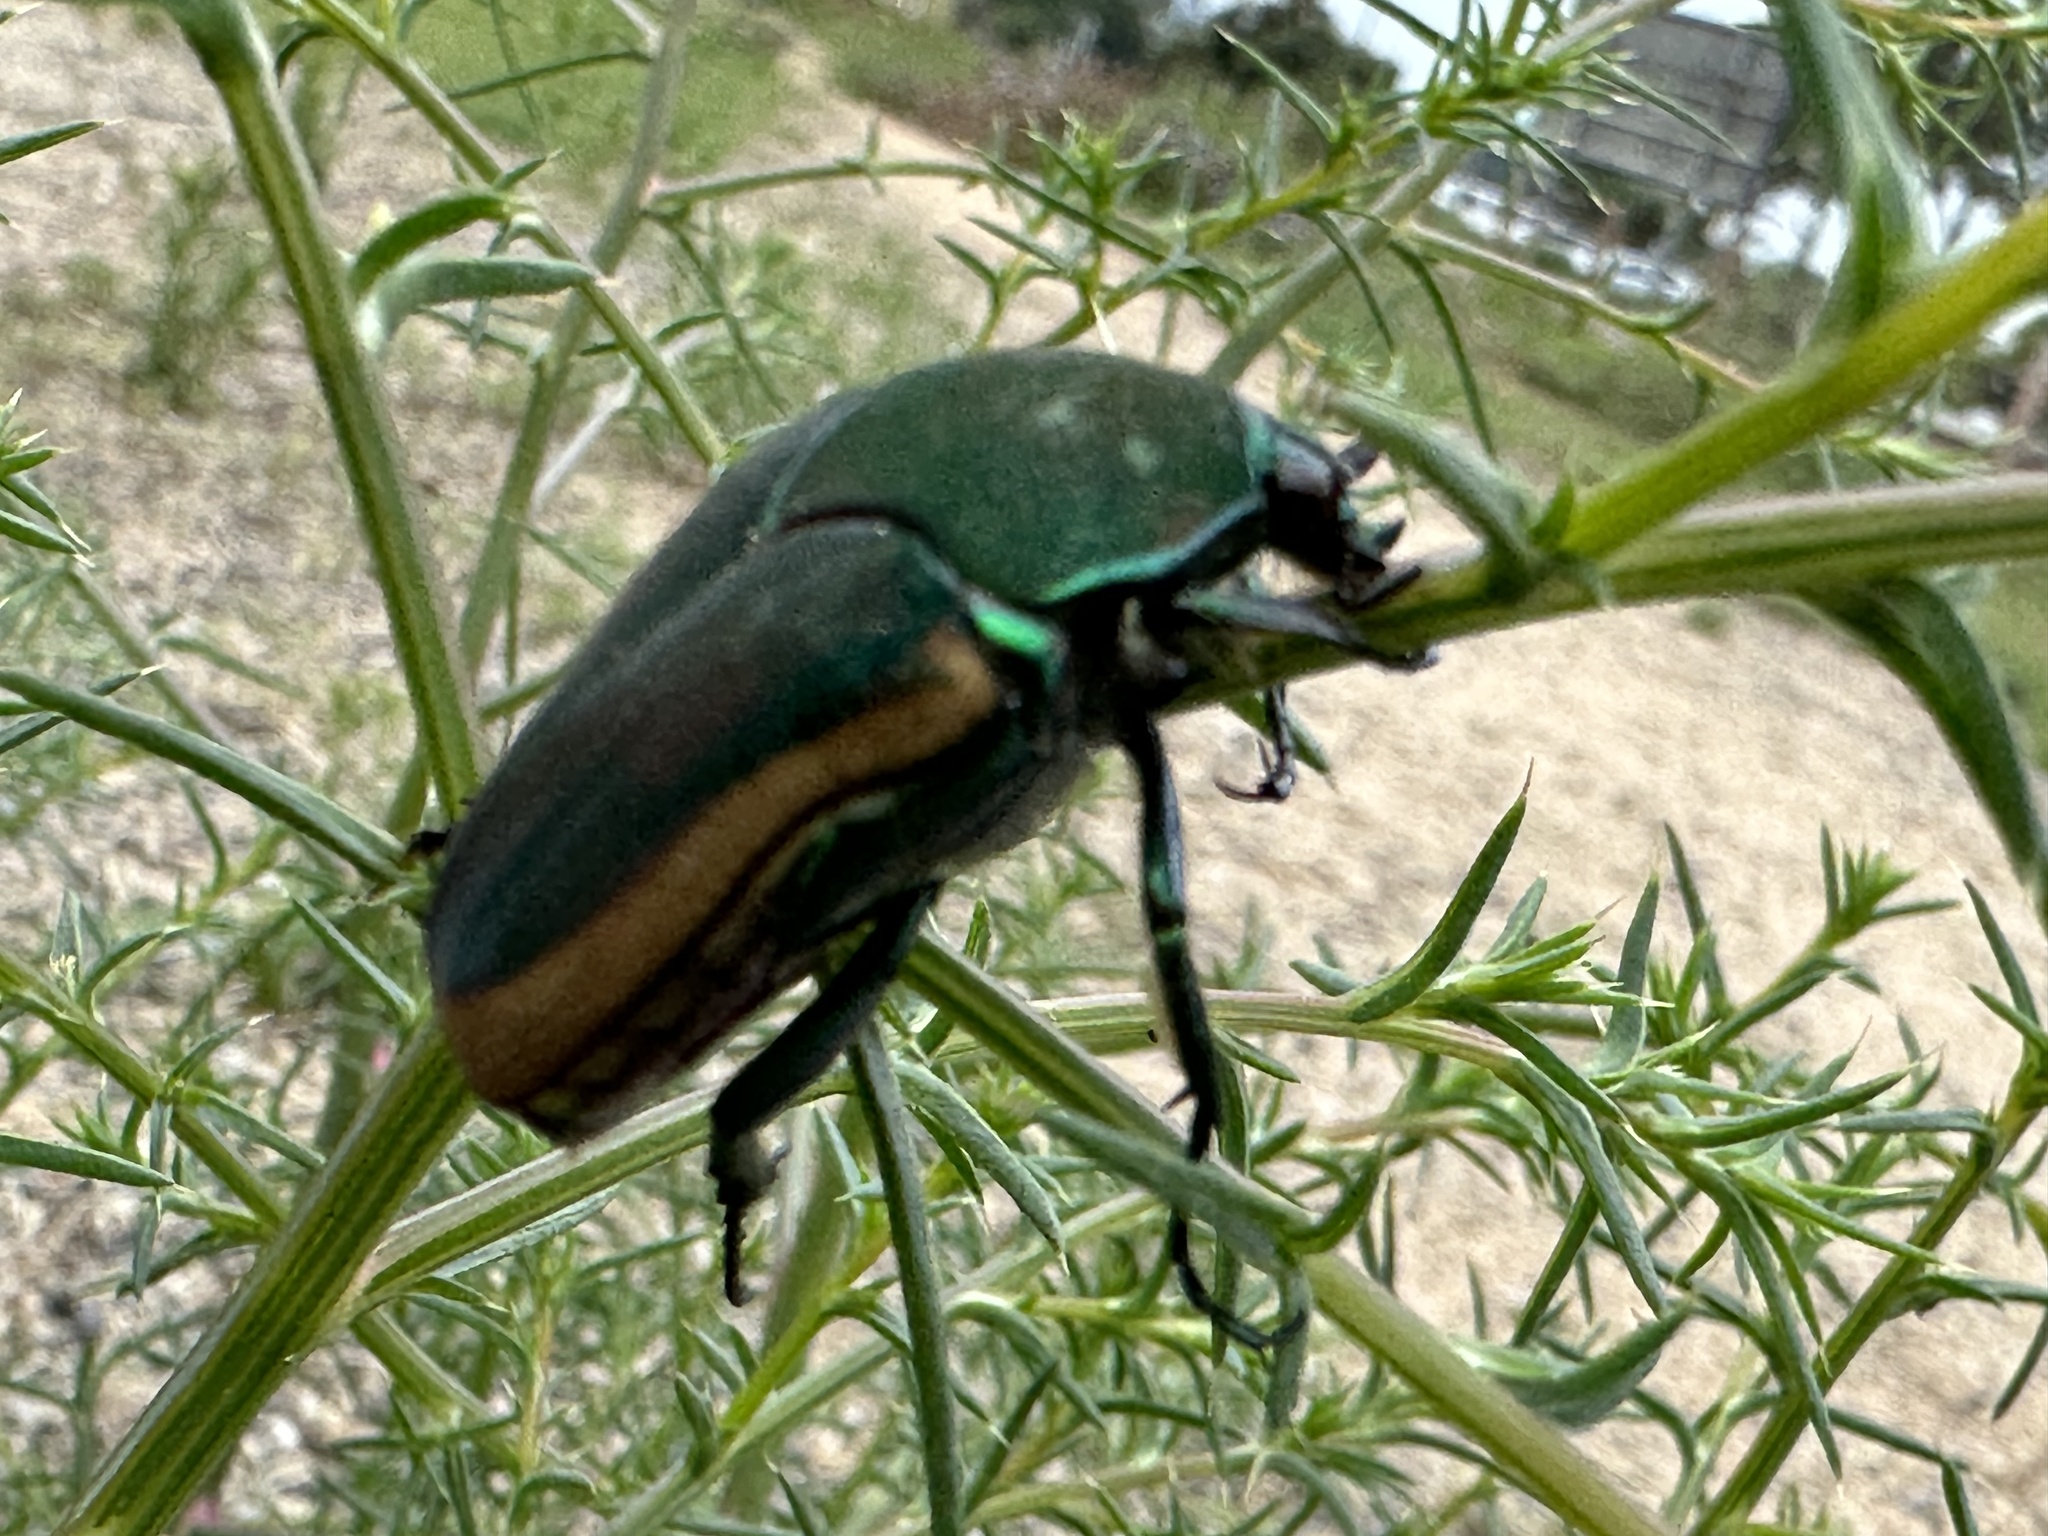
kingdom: Animalia
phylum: Arthropoda
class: Insecta
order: Coleoptera
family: Scarabaeidae
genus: Cotinis
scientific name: Cotinis mutabilis
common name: Figeater beetle
